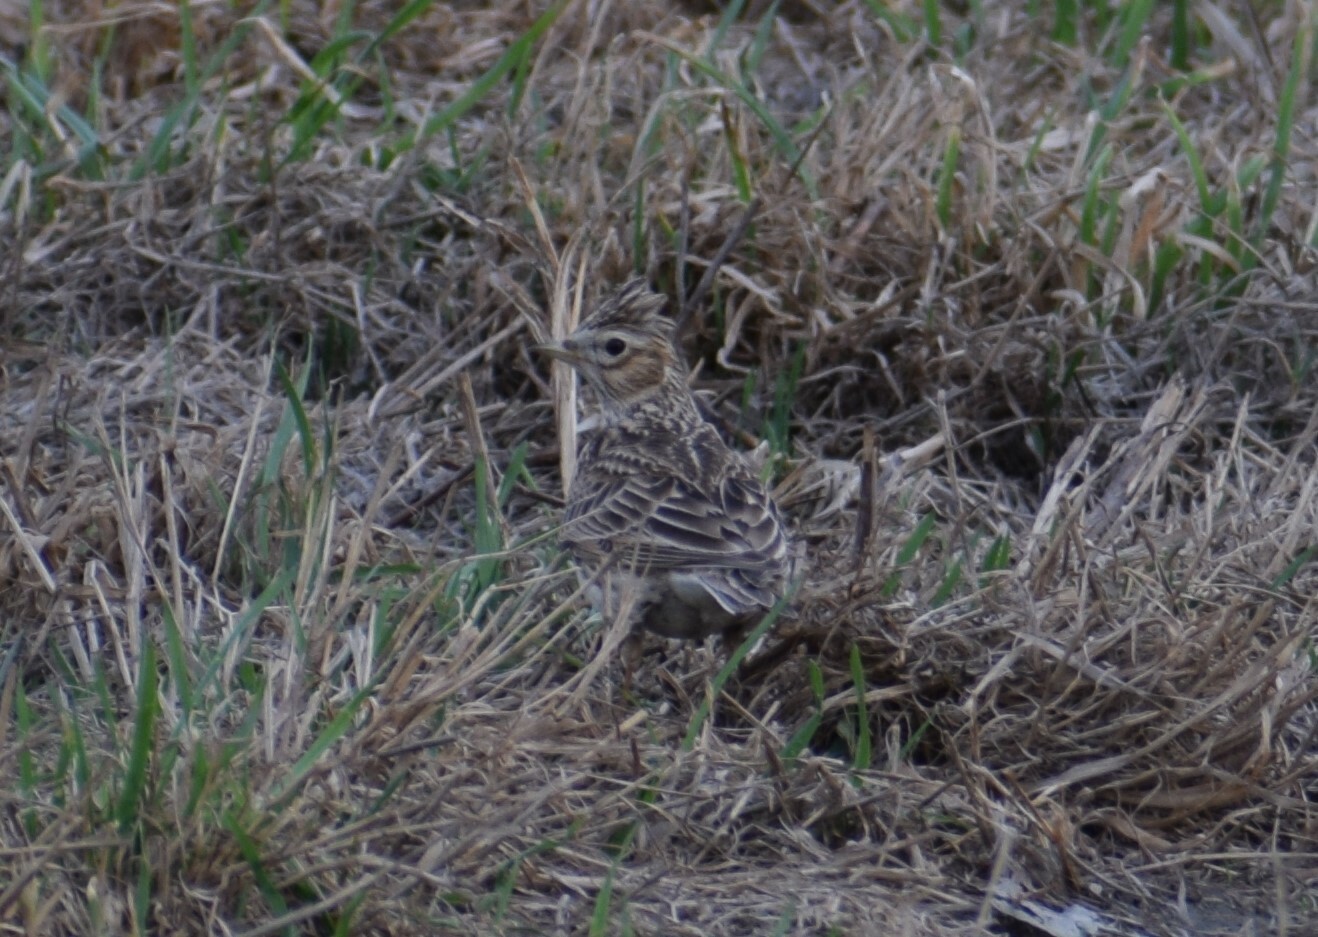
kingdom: Animalia
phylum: Chordata
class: Aves
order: Passeriformes
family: Alaudidae
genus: Alauda
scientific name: Alauda arvensis
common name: Eurasian skylark
